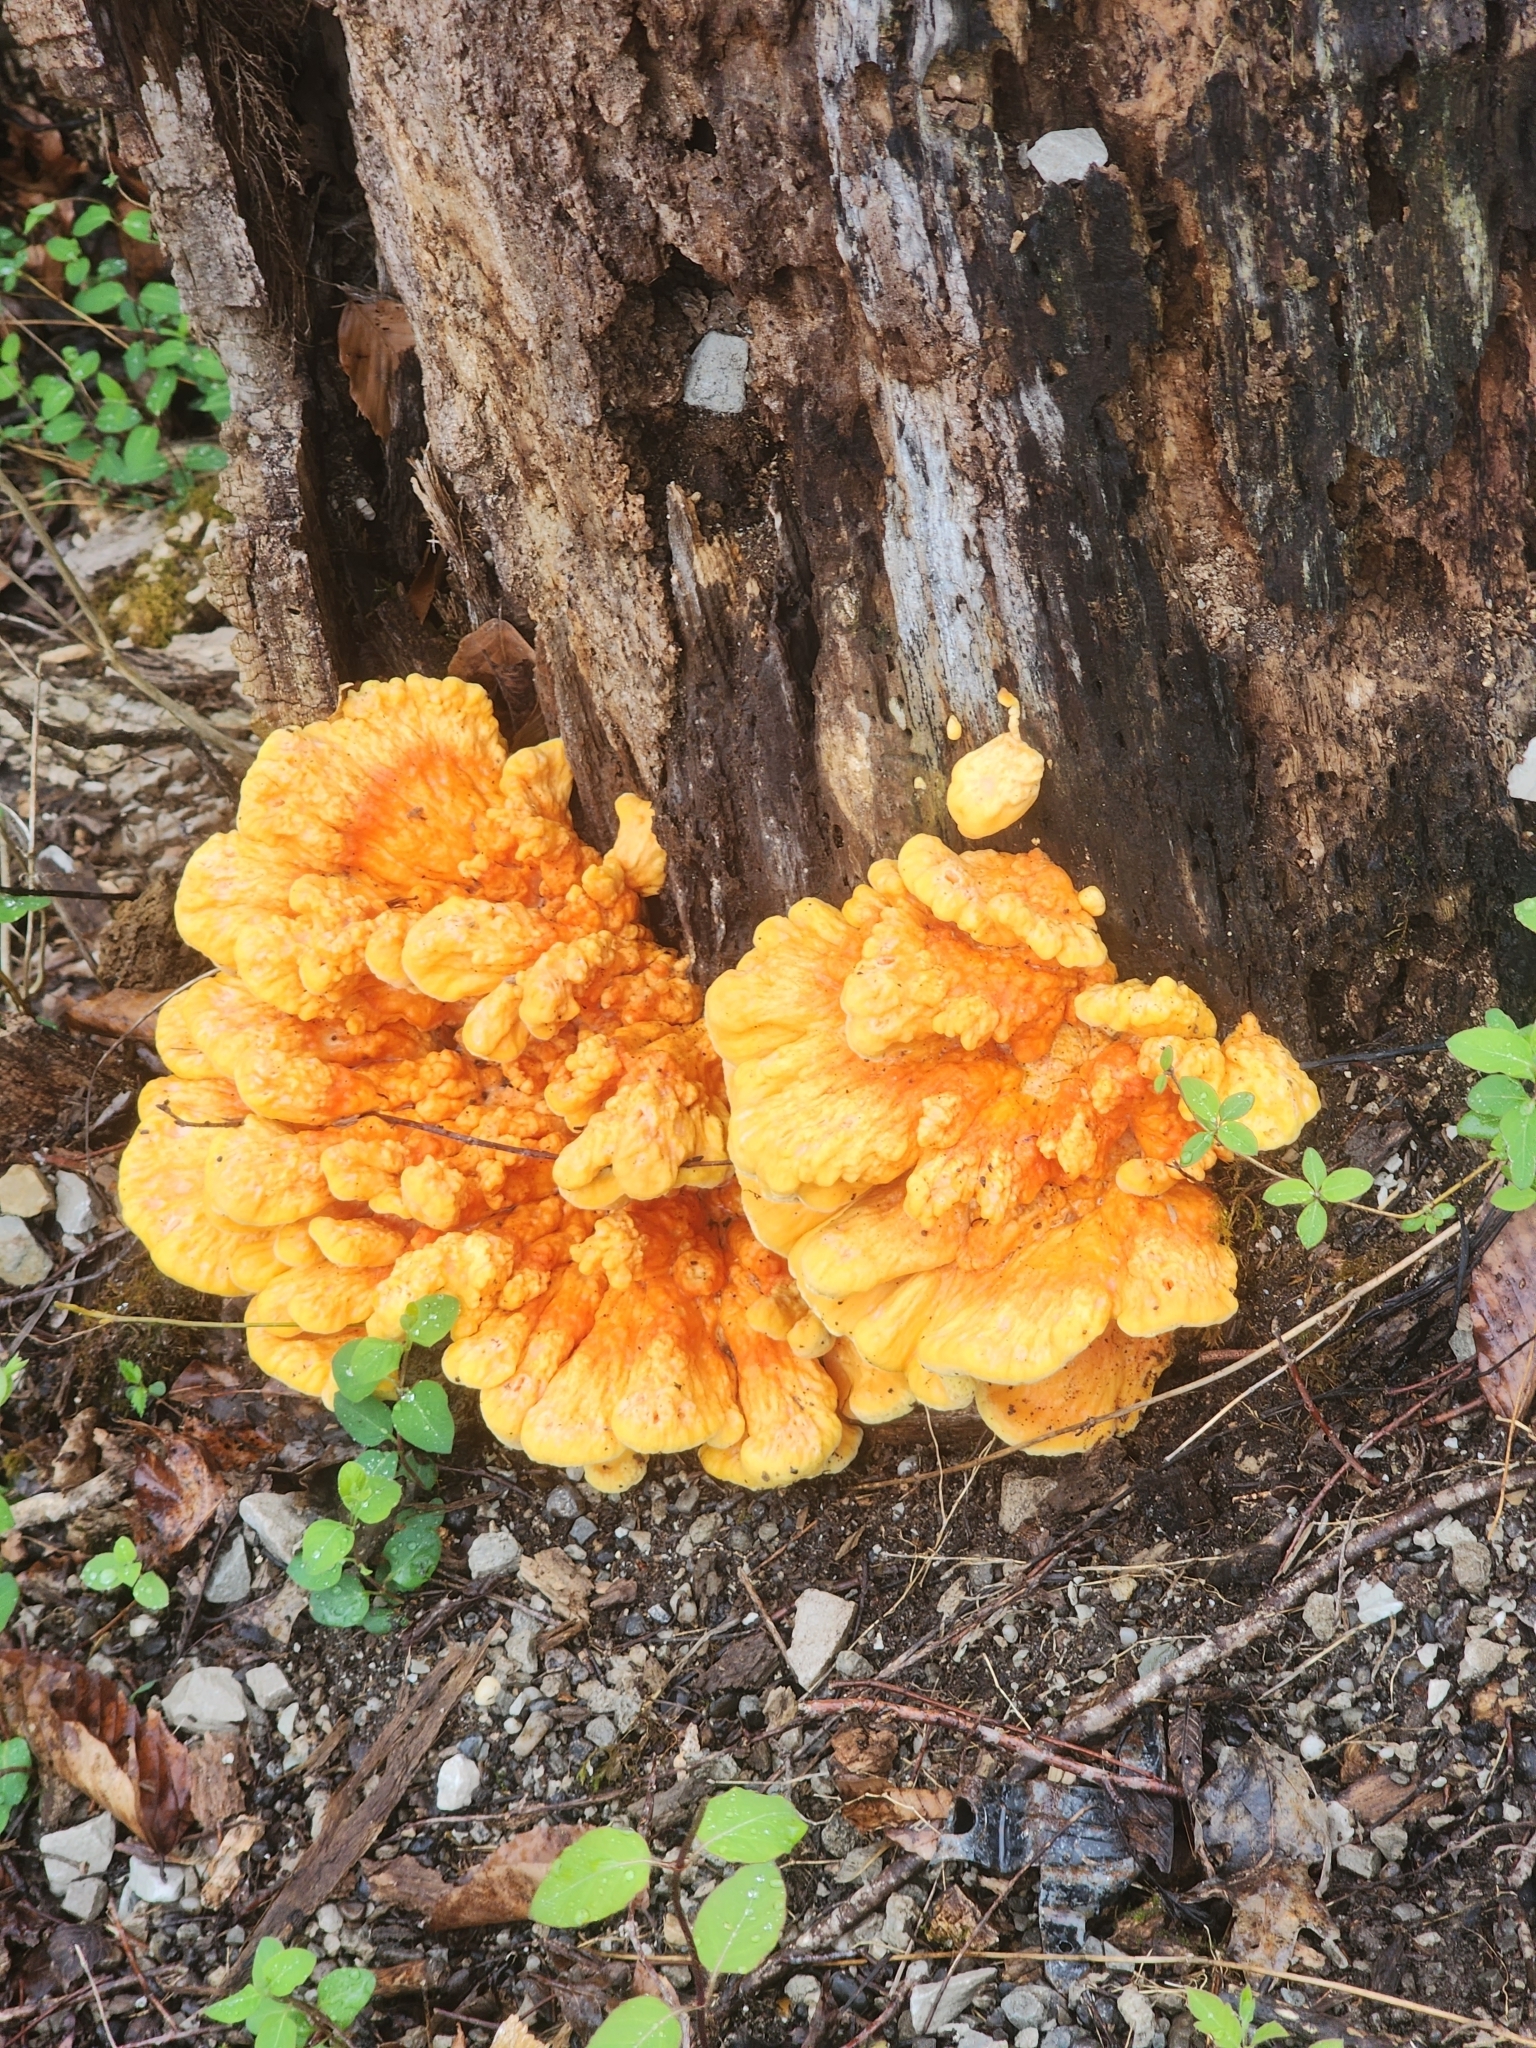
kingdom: Fungi
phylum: Basidiomycota
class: Agaricomycetes
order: Polyporales
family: Laetiporaceae
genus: Laetiporus
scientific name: Laetiporus sulphureus
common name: Chicken of the woods
